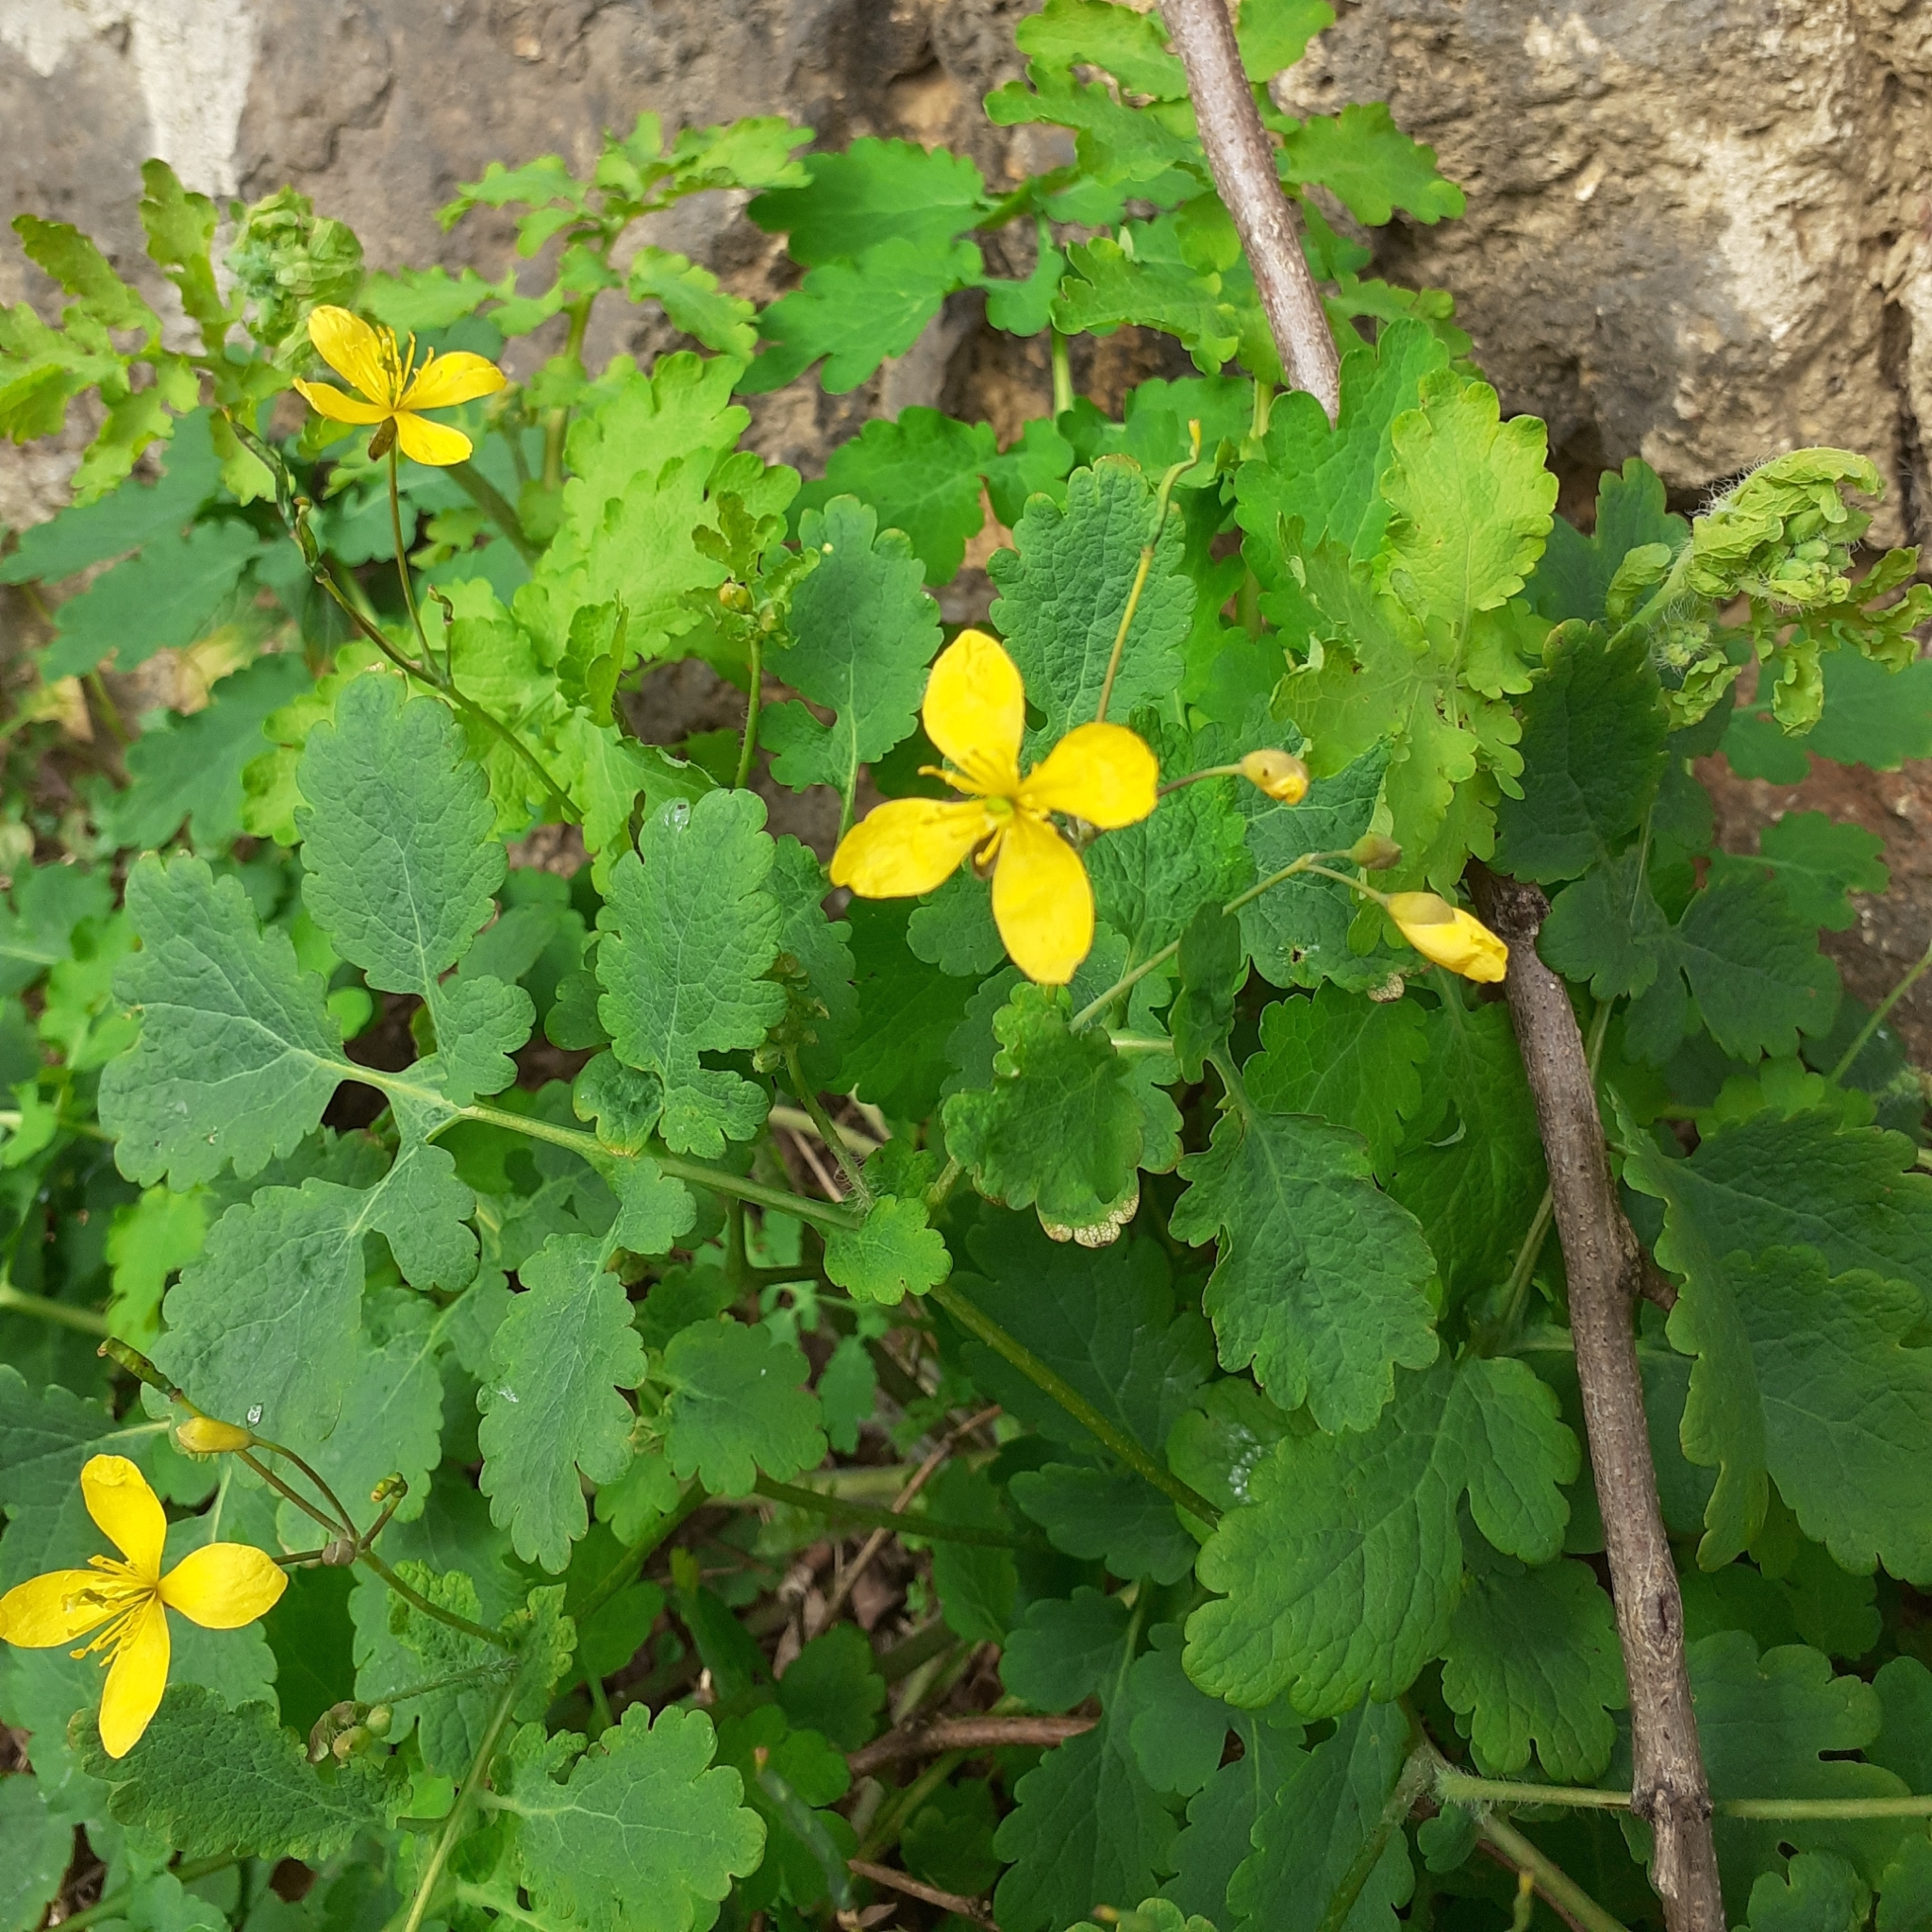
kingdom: Plantae
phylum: Tracheophyta
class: Magnoliopsida
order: Ranunculales
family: Papaveraceae
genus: Chelidonium
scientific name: Chelidonium majus
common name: Greater celandine
